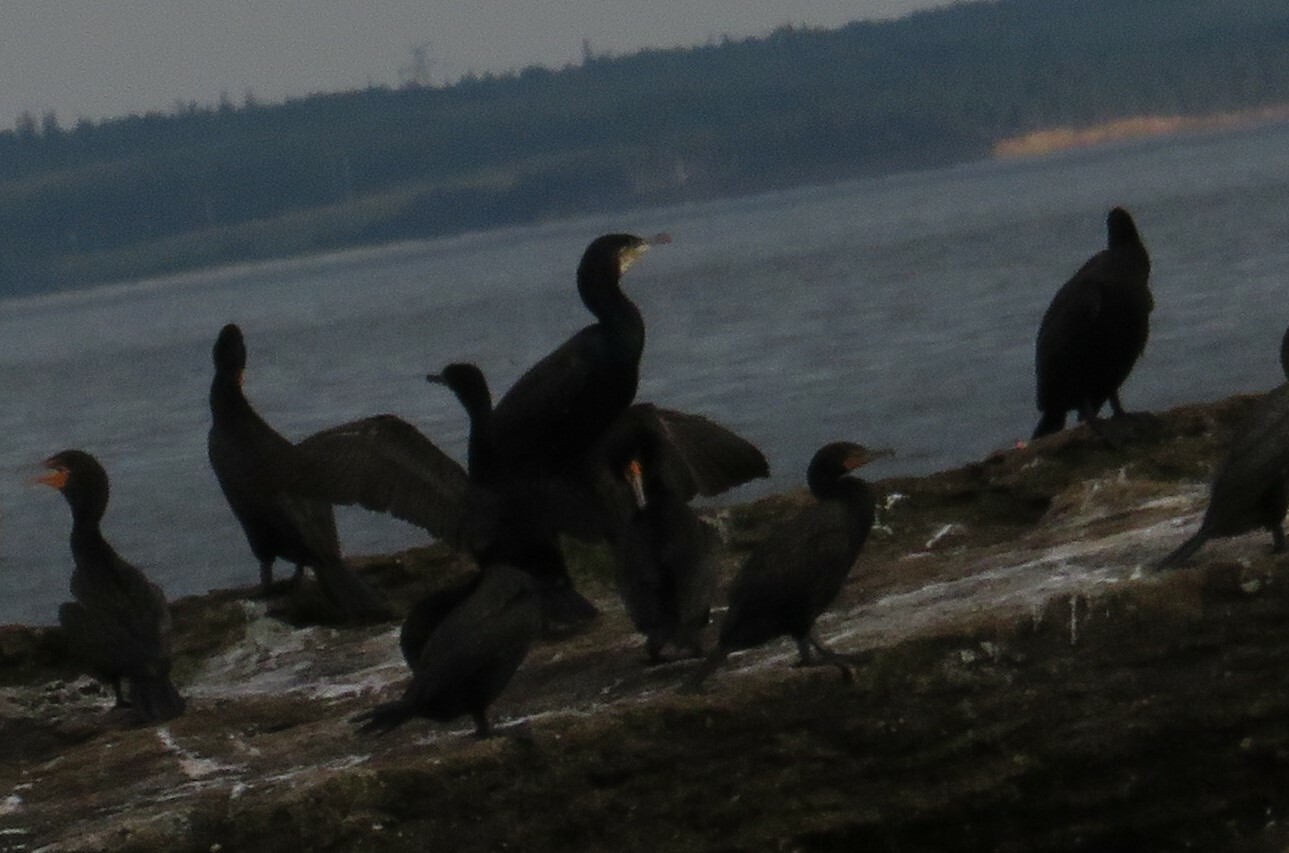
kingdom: Animalia
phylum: Chordata
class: Aves
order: Suliformes
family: Phalacrocoracidae
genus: Phalacrocorax
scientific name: Phalacrocorax auritus
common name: Double-crested cormorant
